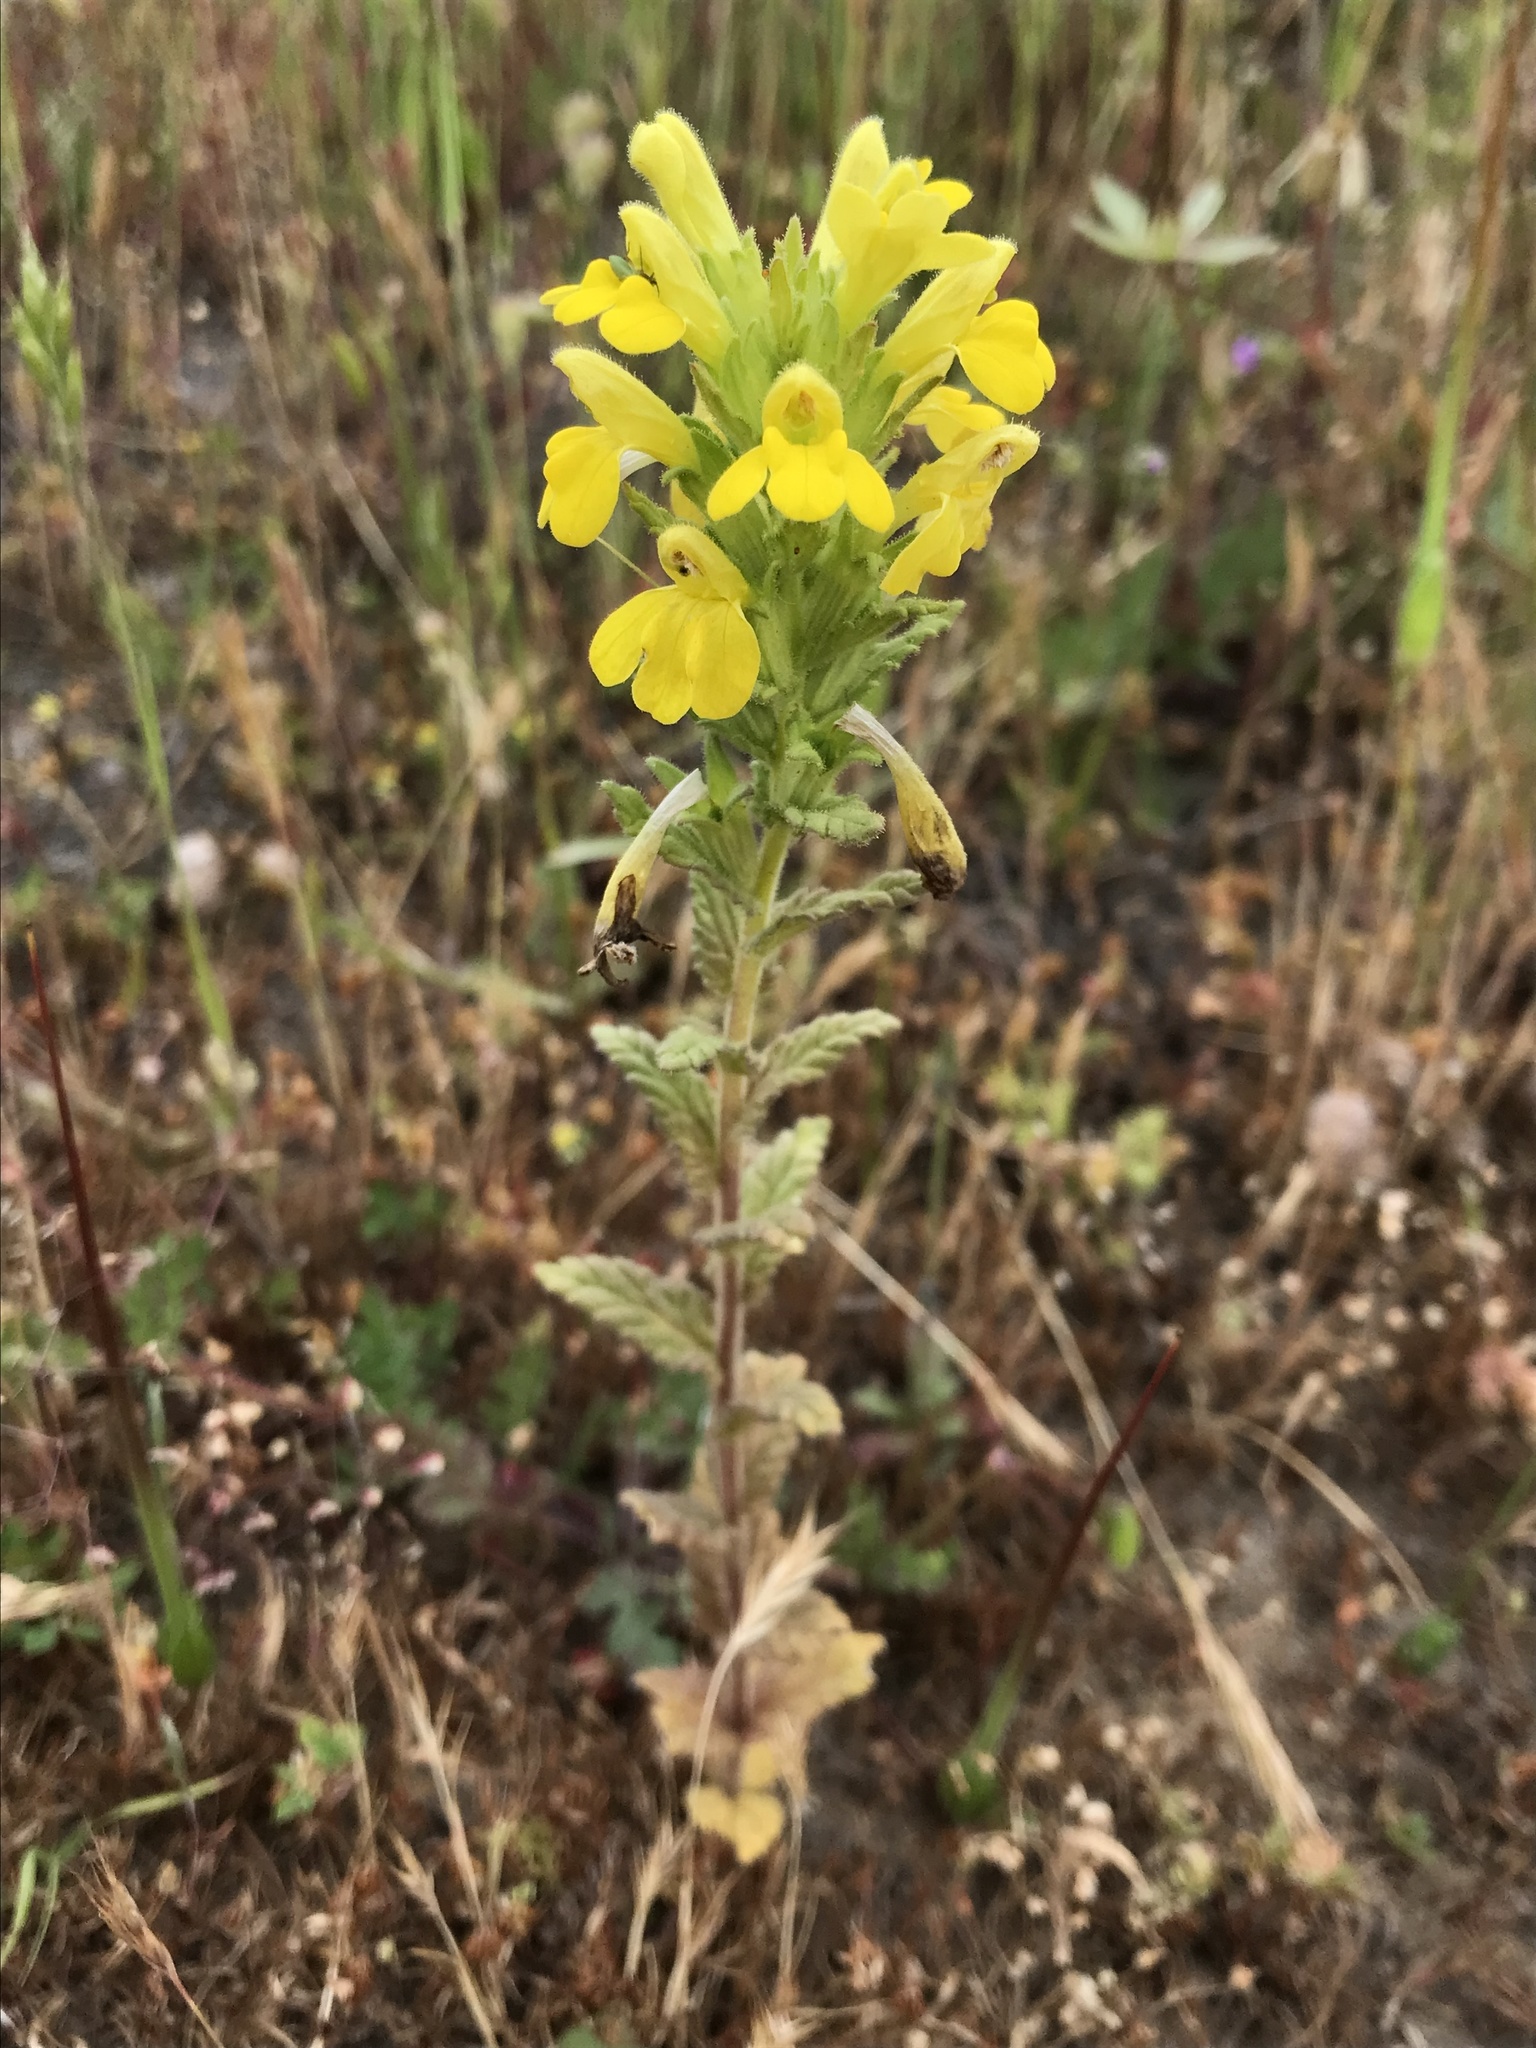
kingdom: Plantae
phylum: Tracheophyta
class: Magnoliopsida
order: Lamiales
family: Orobanchaceae
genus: Bellardia
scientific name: Bellardia viscosa
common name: Sticky parentucellia
